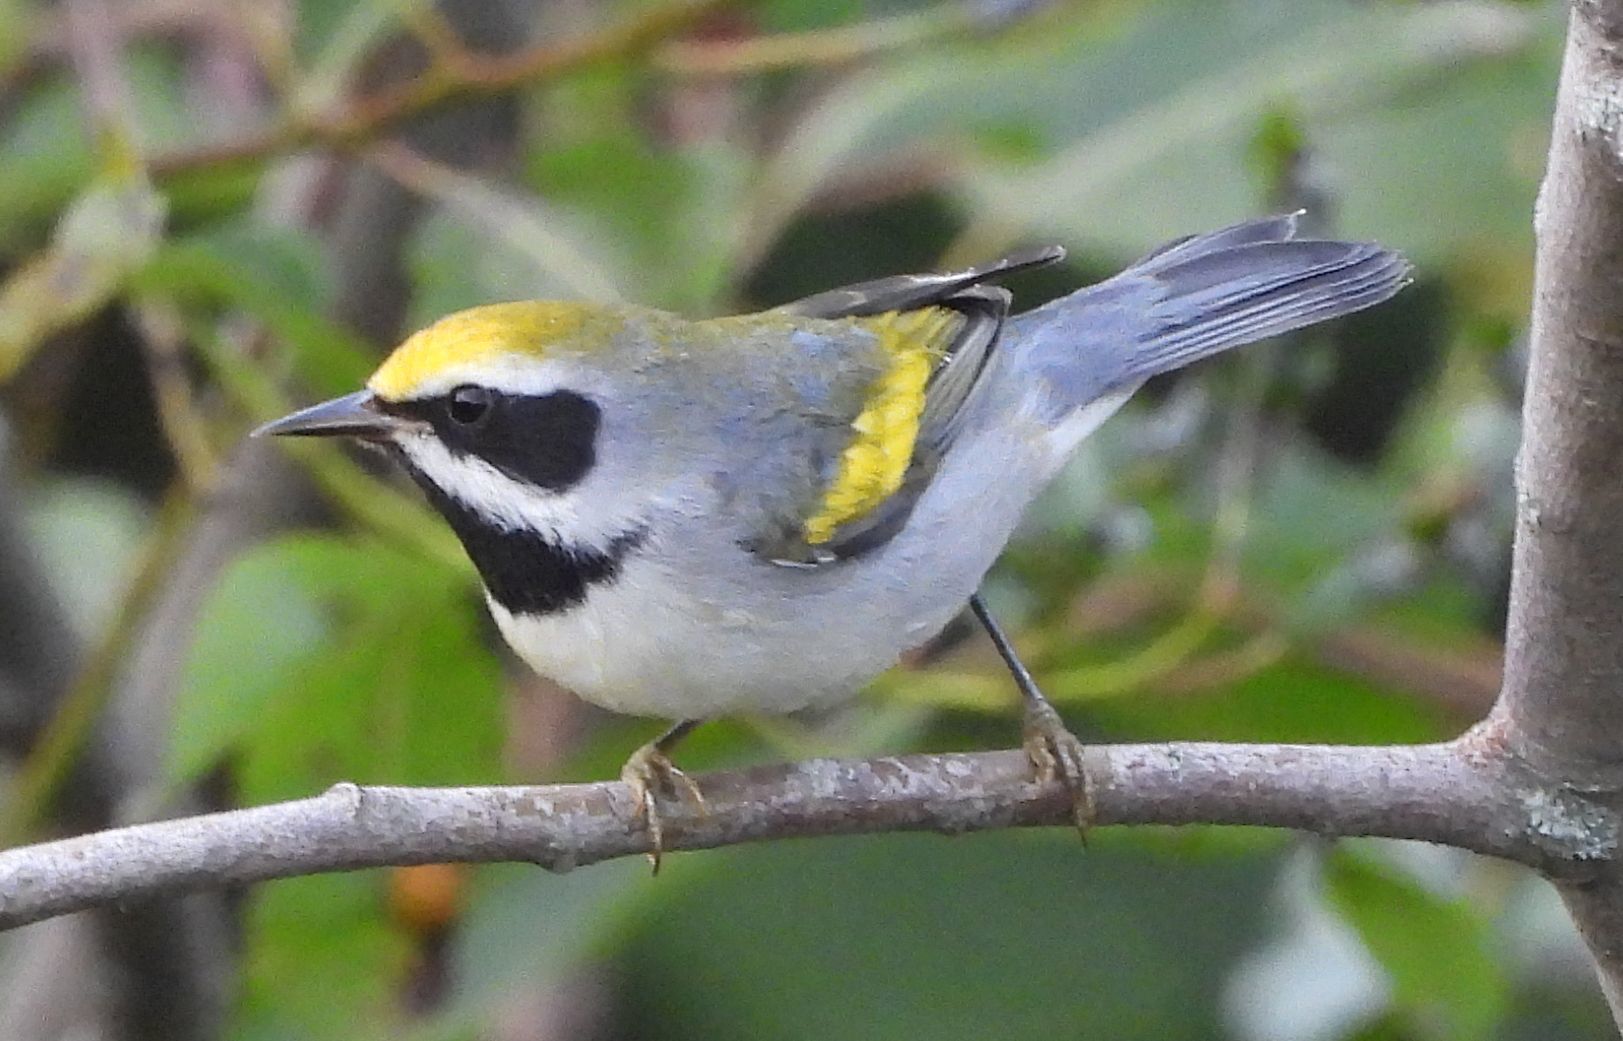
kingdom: Animalia
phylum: Chordata
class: Aves
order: Passeriformes
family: Parulidae
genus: Vermivora
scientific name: Vermivora chrysoptera
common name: Golden-winged warbler
